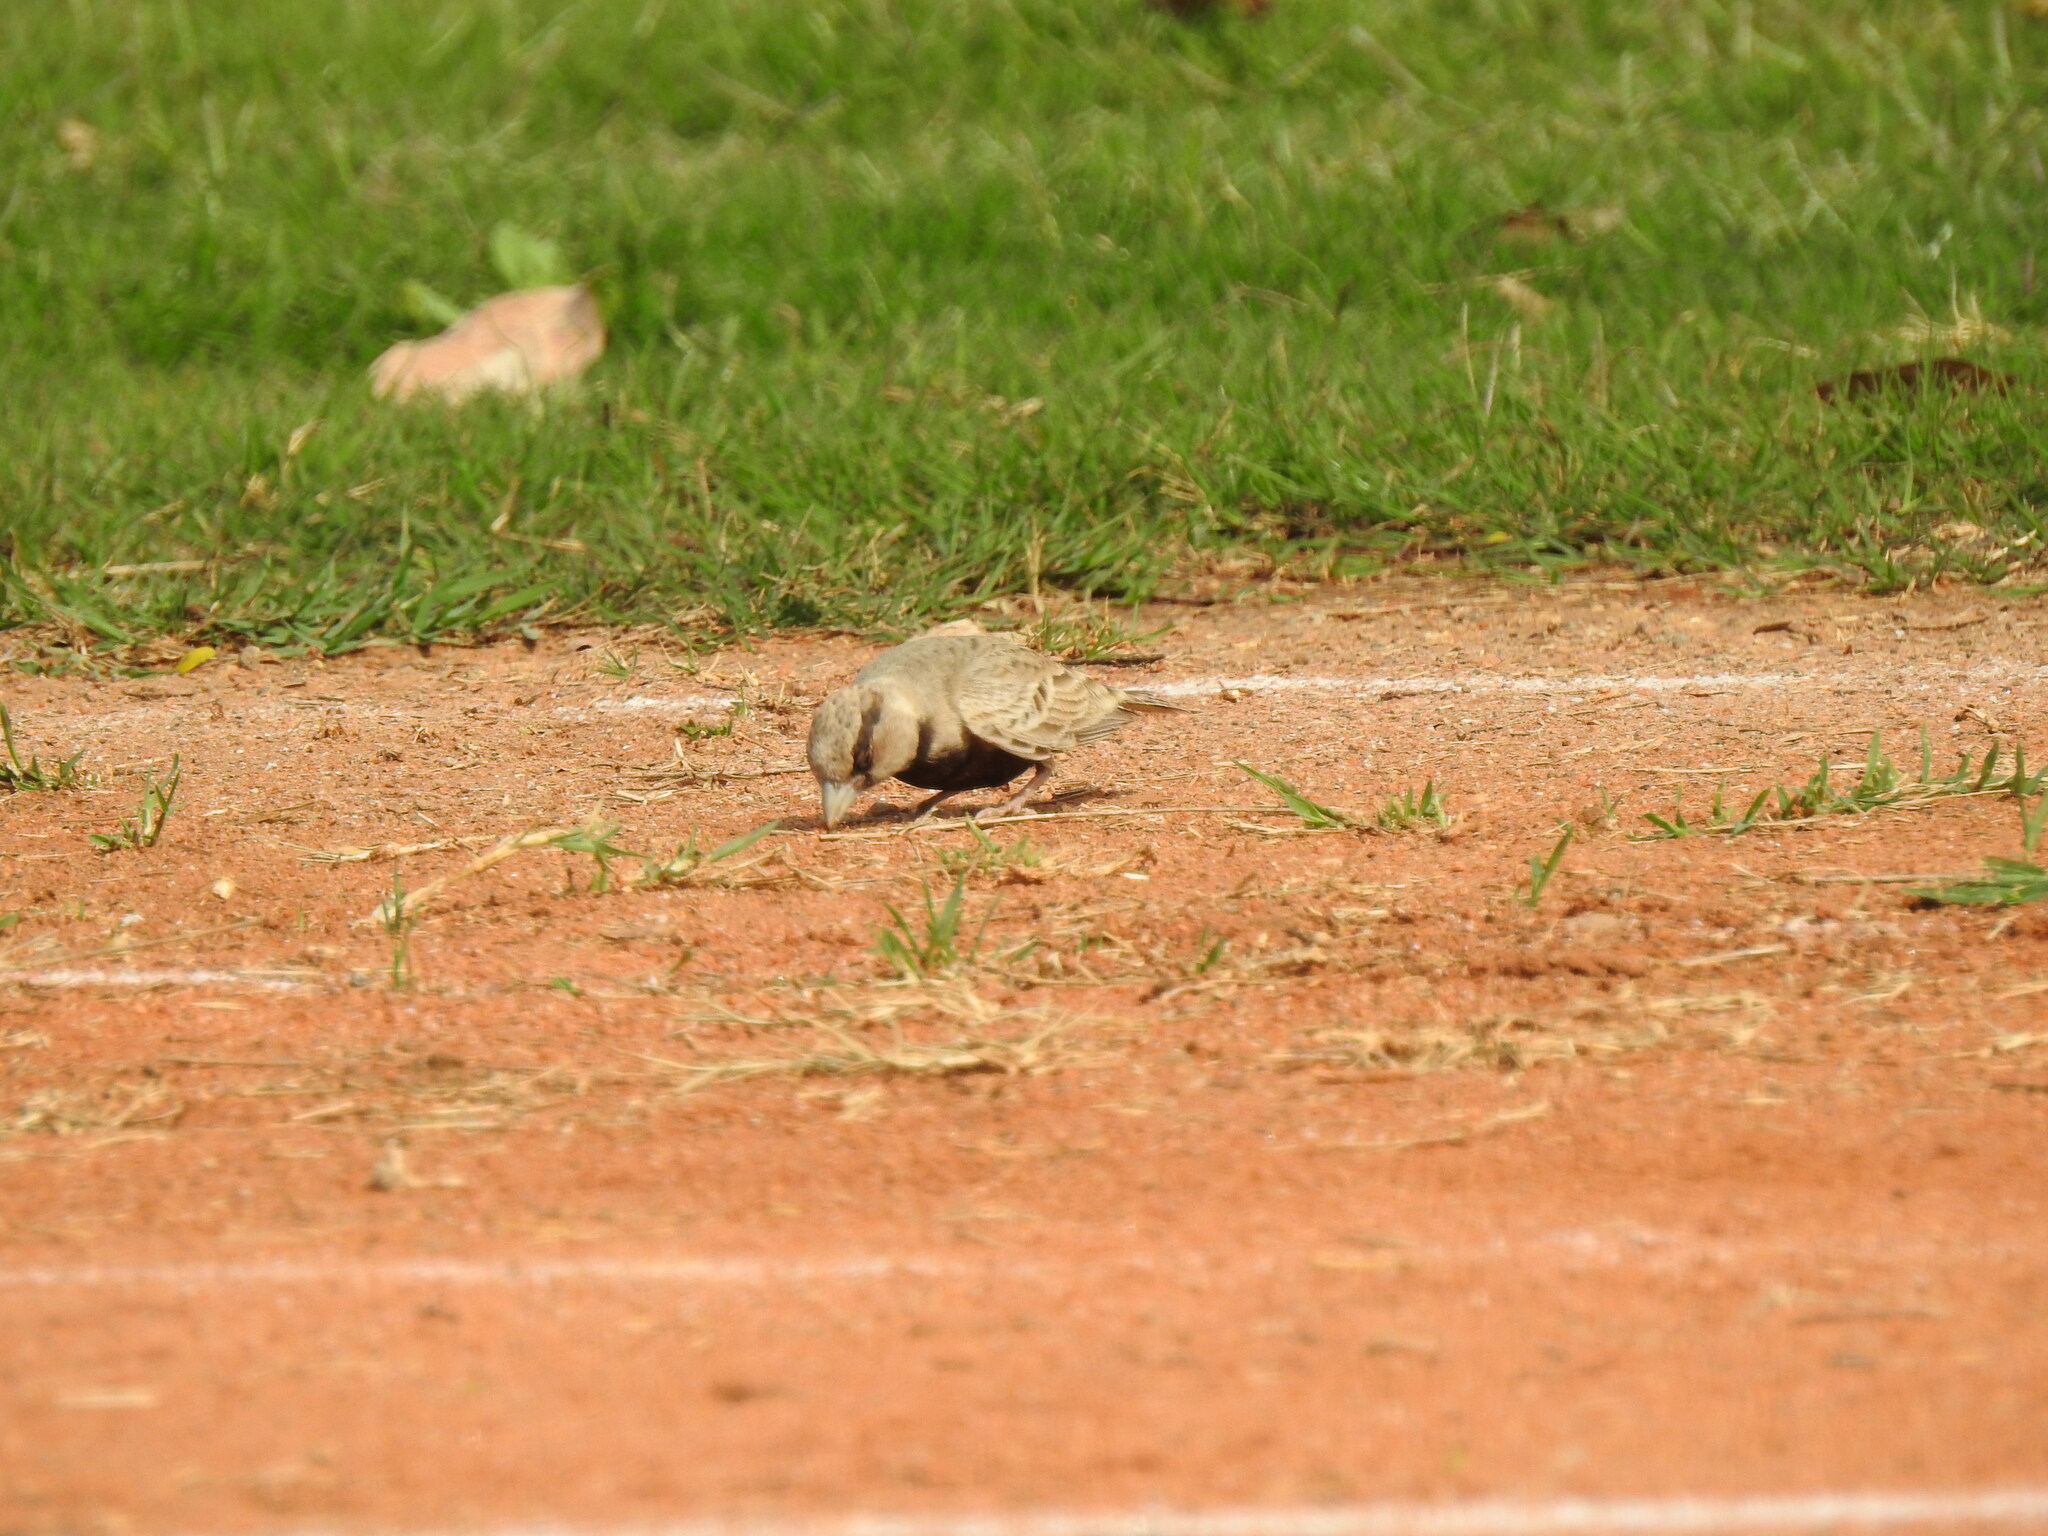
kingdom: Animalia
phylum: Chordata
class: Aves
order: Passeriformes
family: Alaudidae
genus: Eremopterix
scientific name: Eremopterix griseus
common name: Ashy-crowned sparrow-lark
